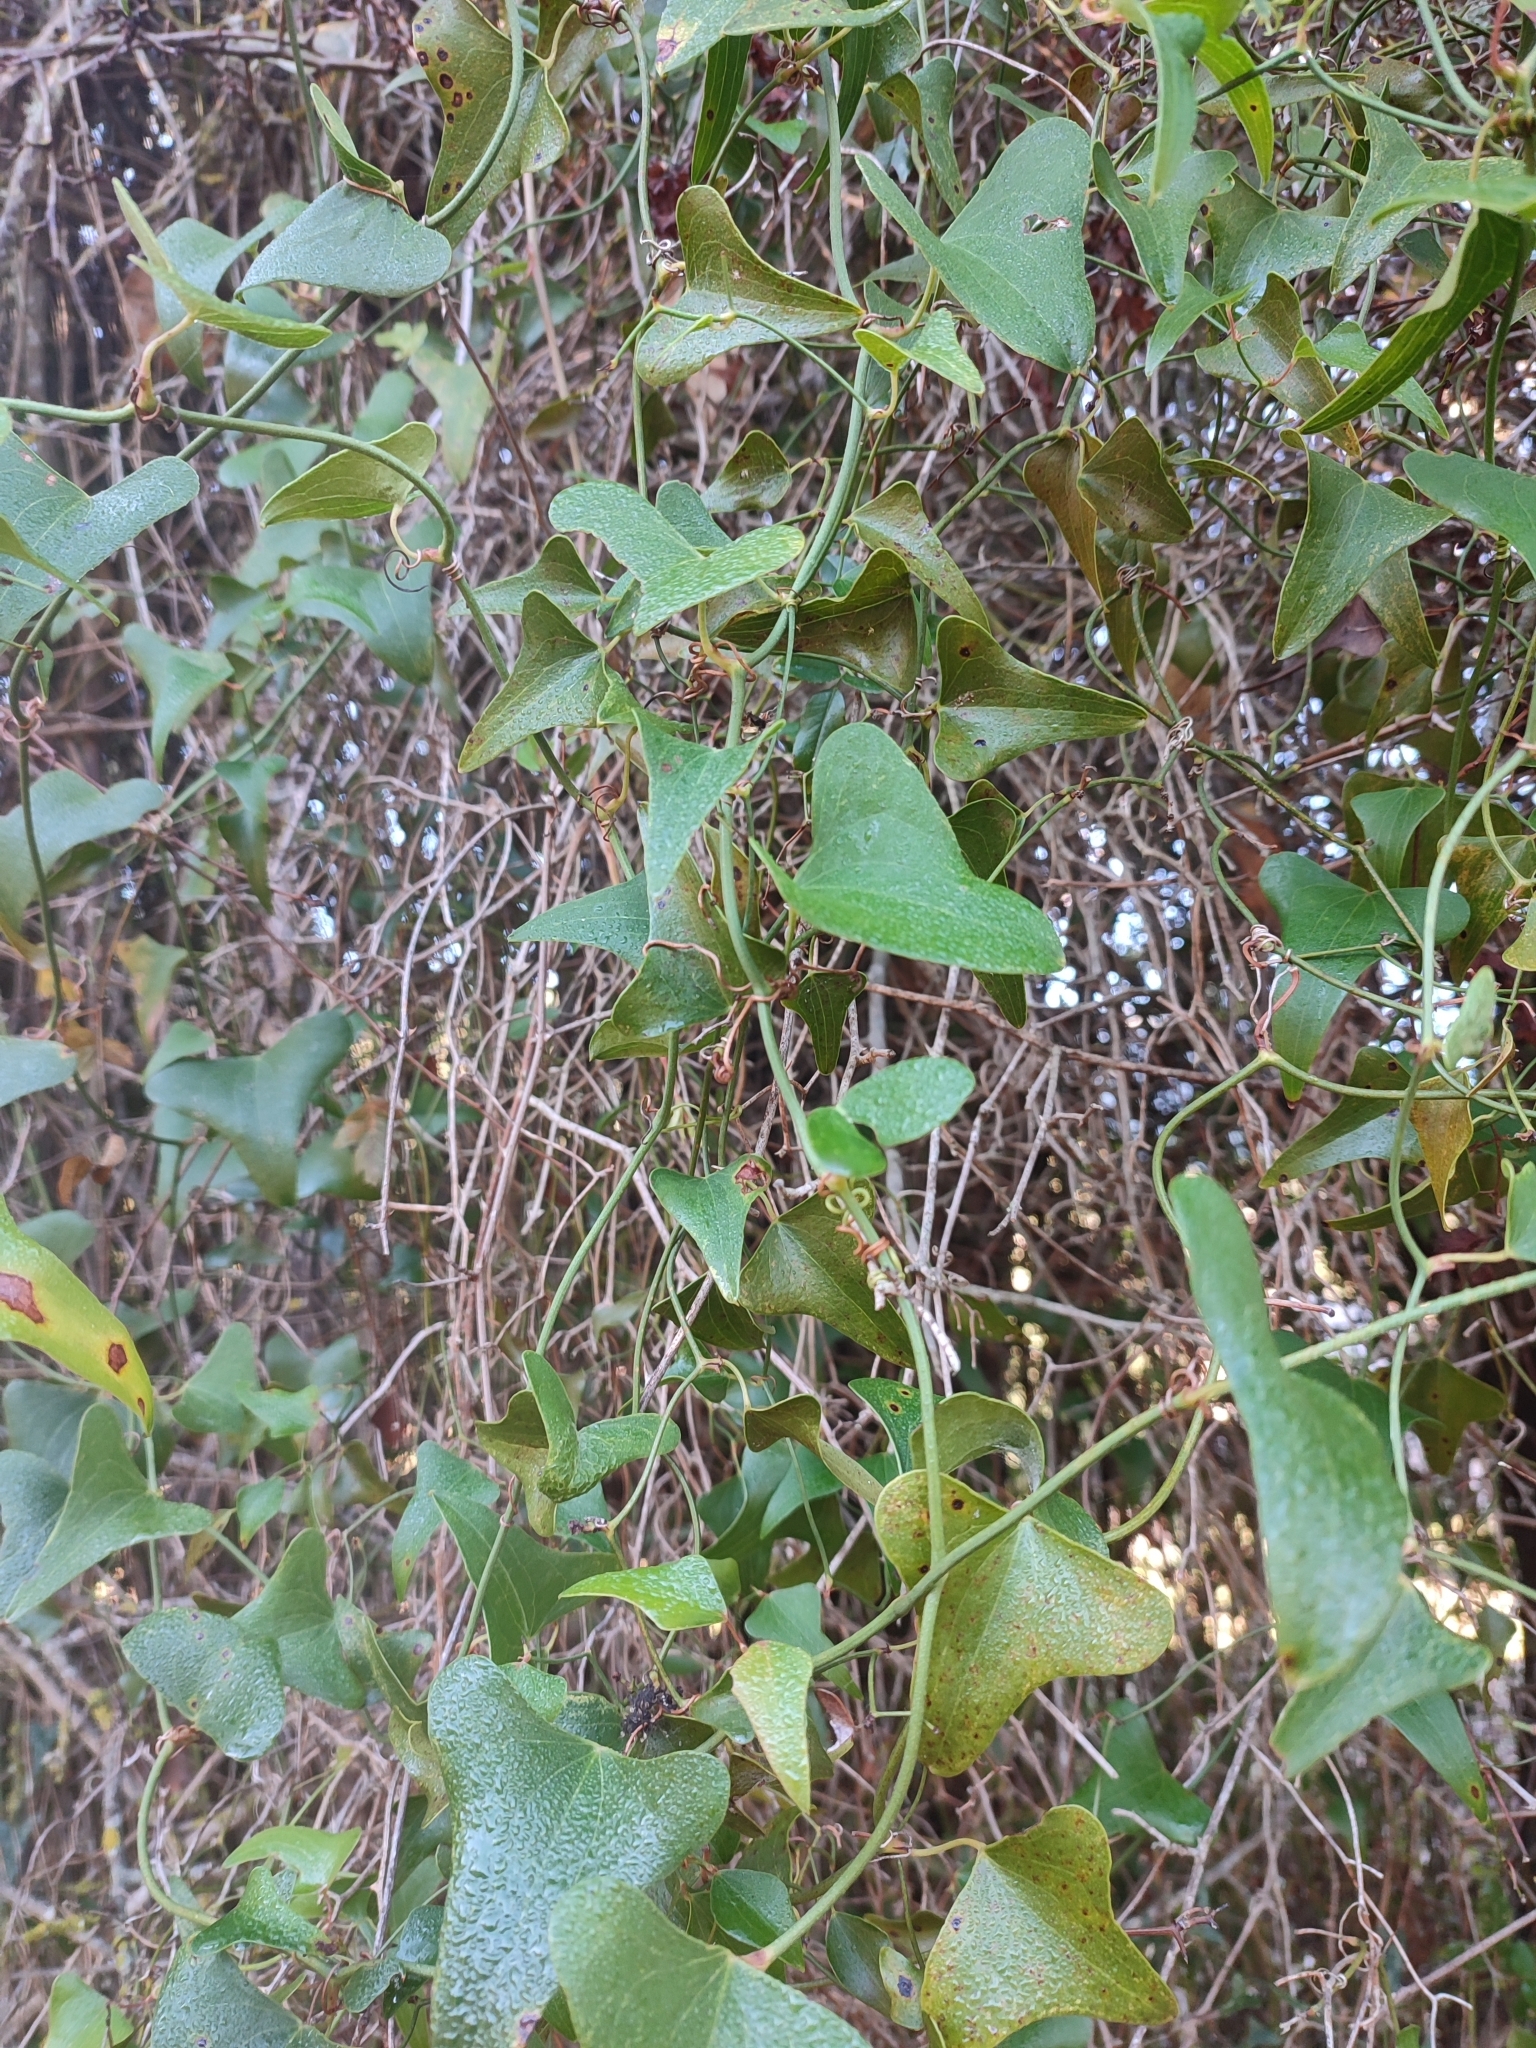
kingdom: Plantae
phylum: Tracheophyta
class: Liliopsida
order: Liliales
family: Smilacaceae
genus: Smilax
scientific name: Smilax aspera
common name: Common smilax
